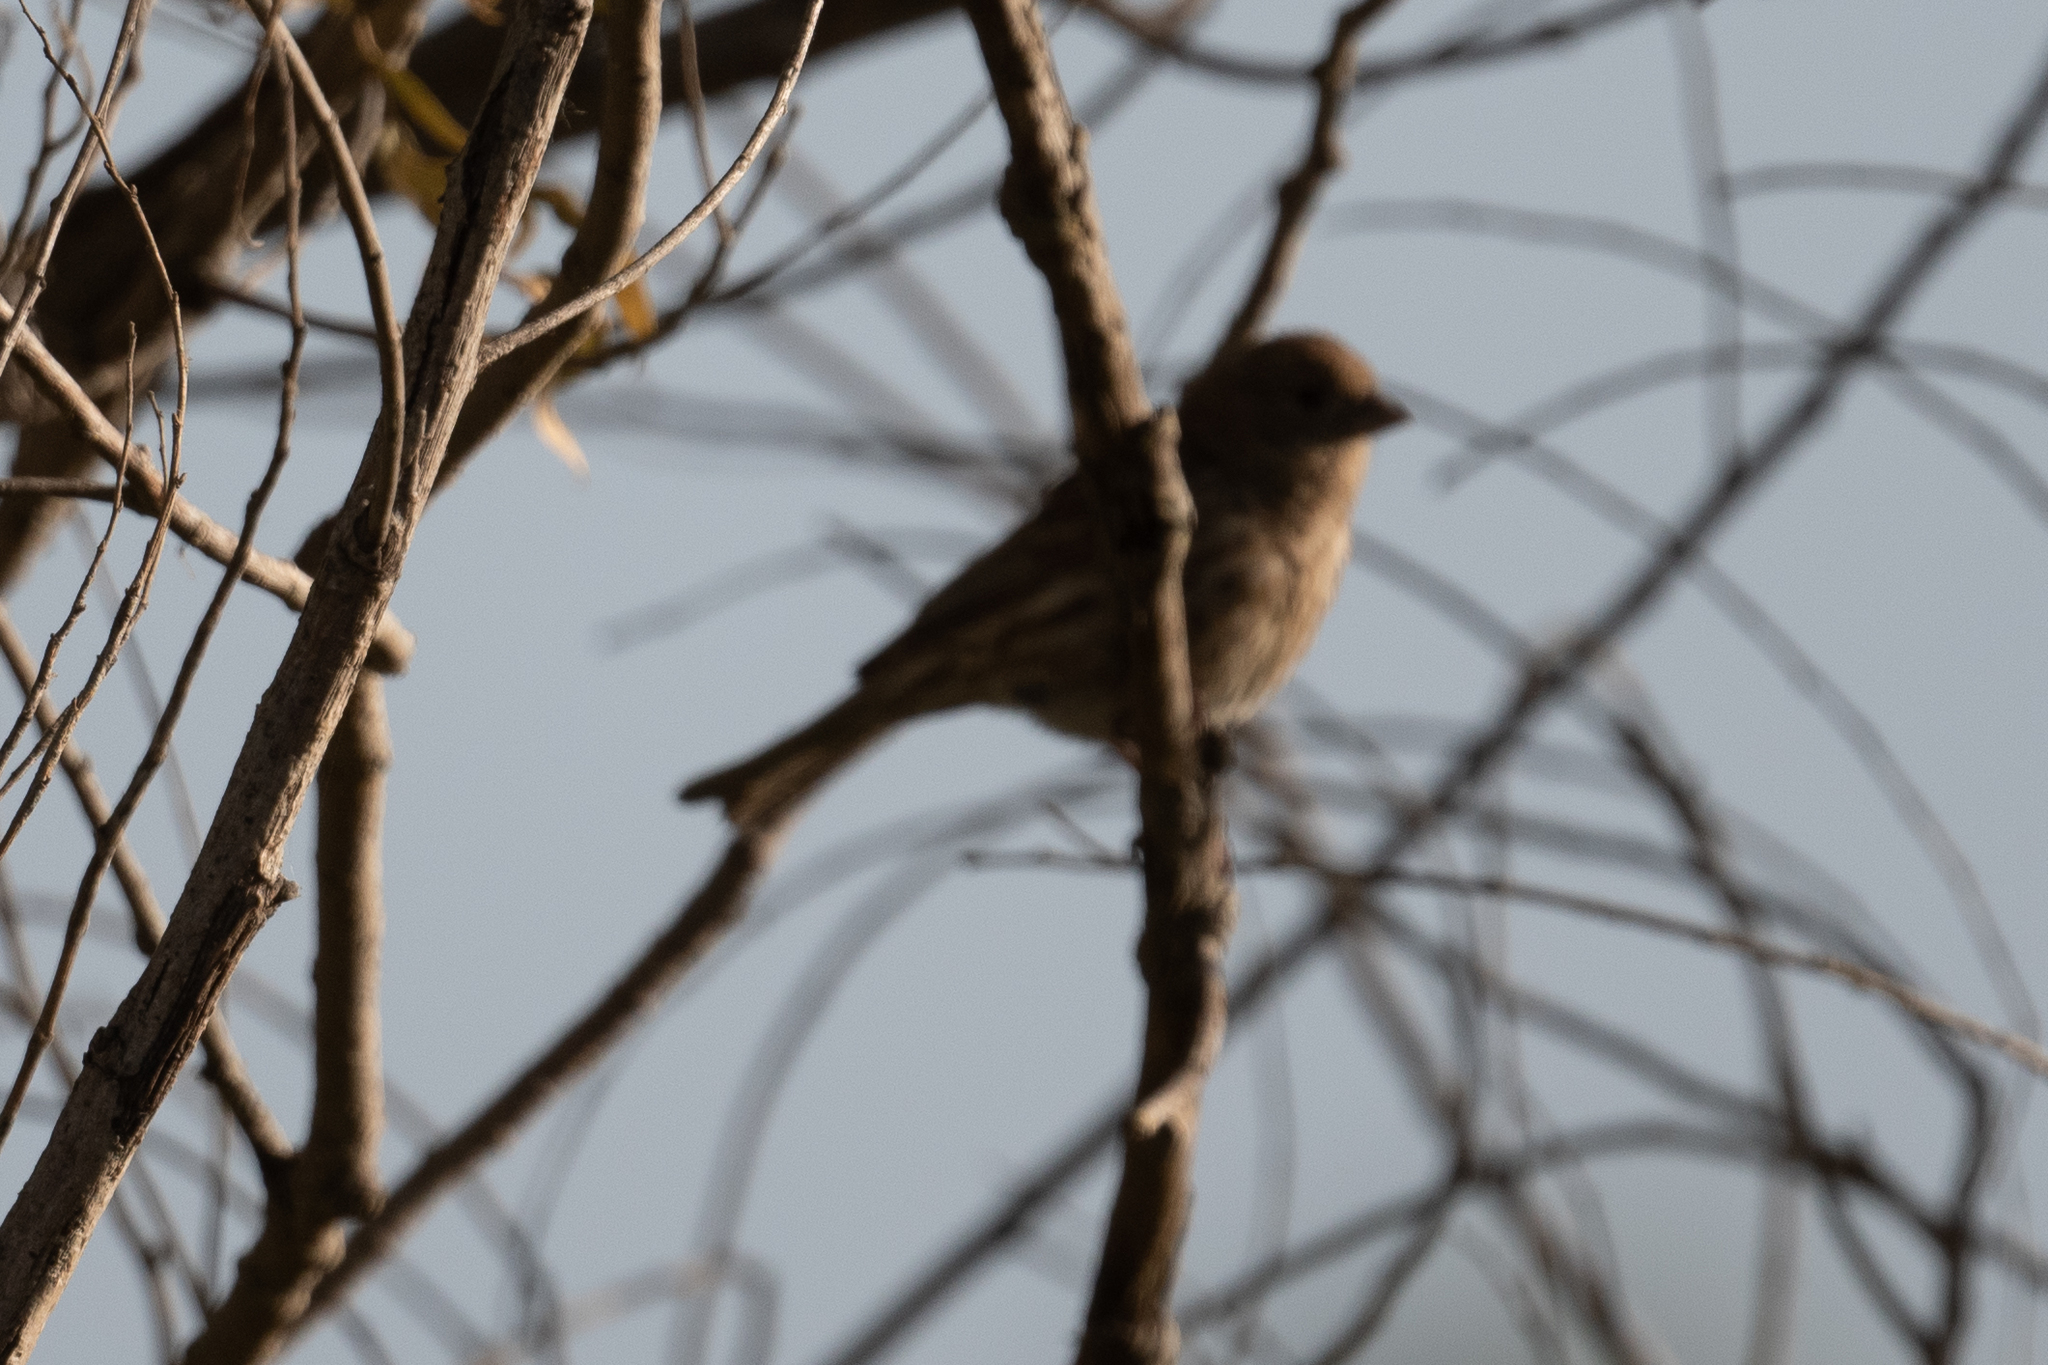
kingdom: Animalia
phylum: Chordata
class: Aves
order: Passeriformes
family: Fringillidae
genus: Haemorhous
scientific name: Haemorhous mexicanus
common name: House finch
